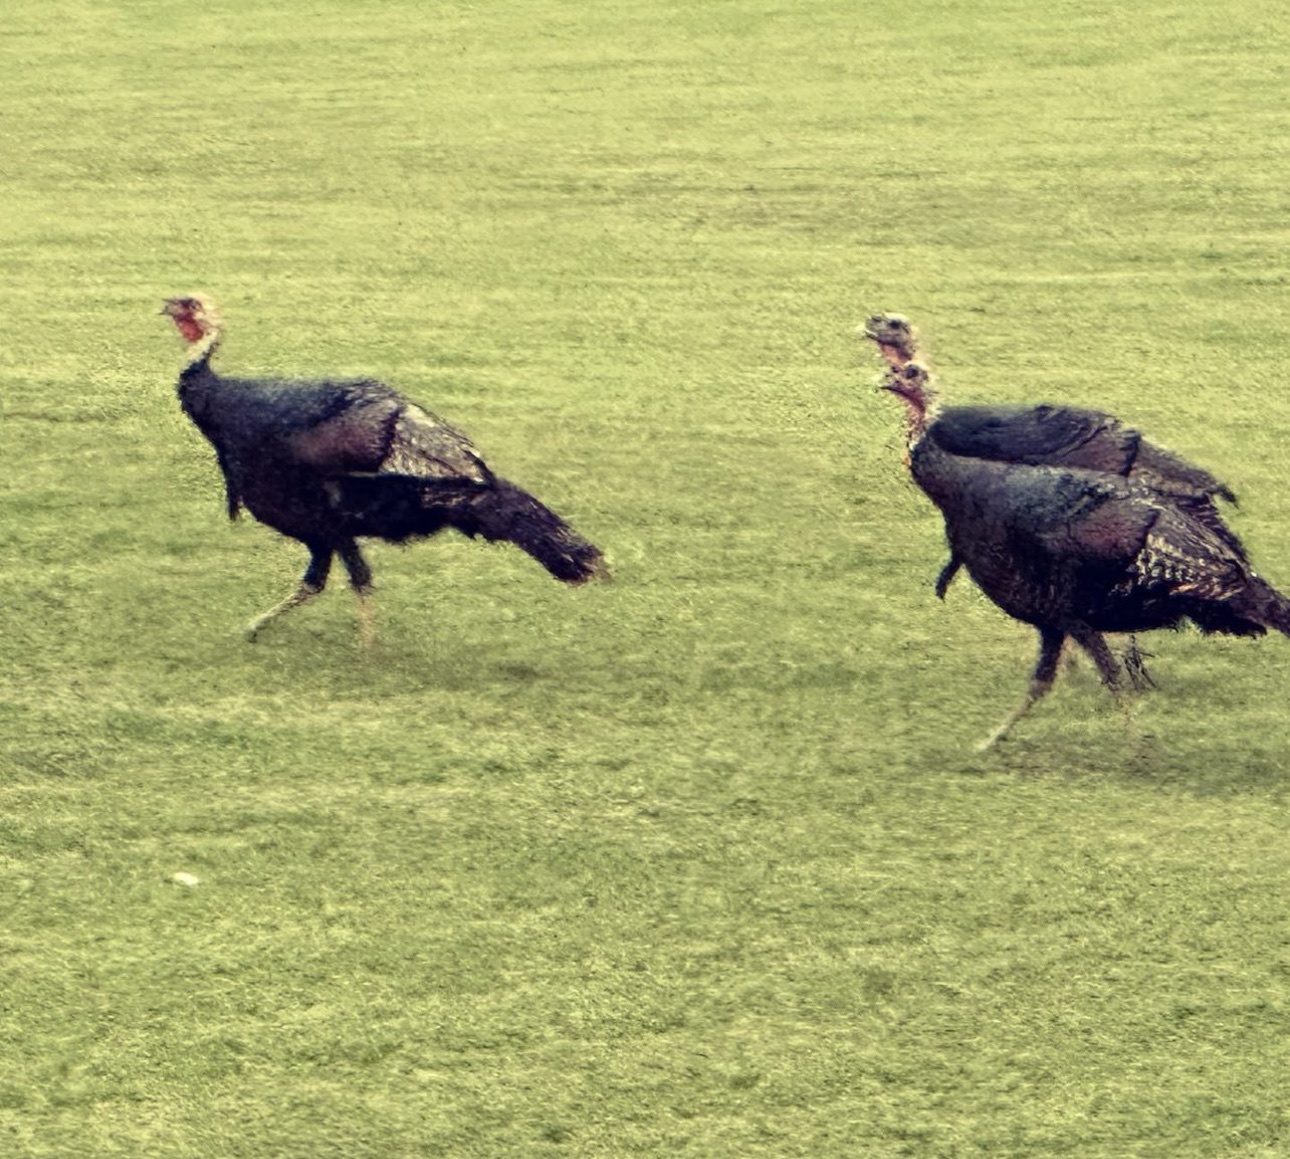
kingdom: Animalia
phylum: Chordata
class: Aves
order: Galliformes
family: Phasianidae
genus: Meleagris
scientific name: Meleagris gallopavo
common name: Wild turkey
